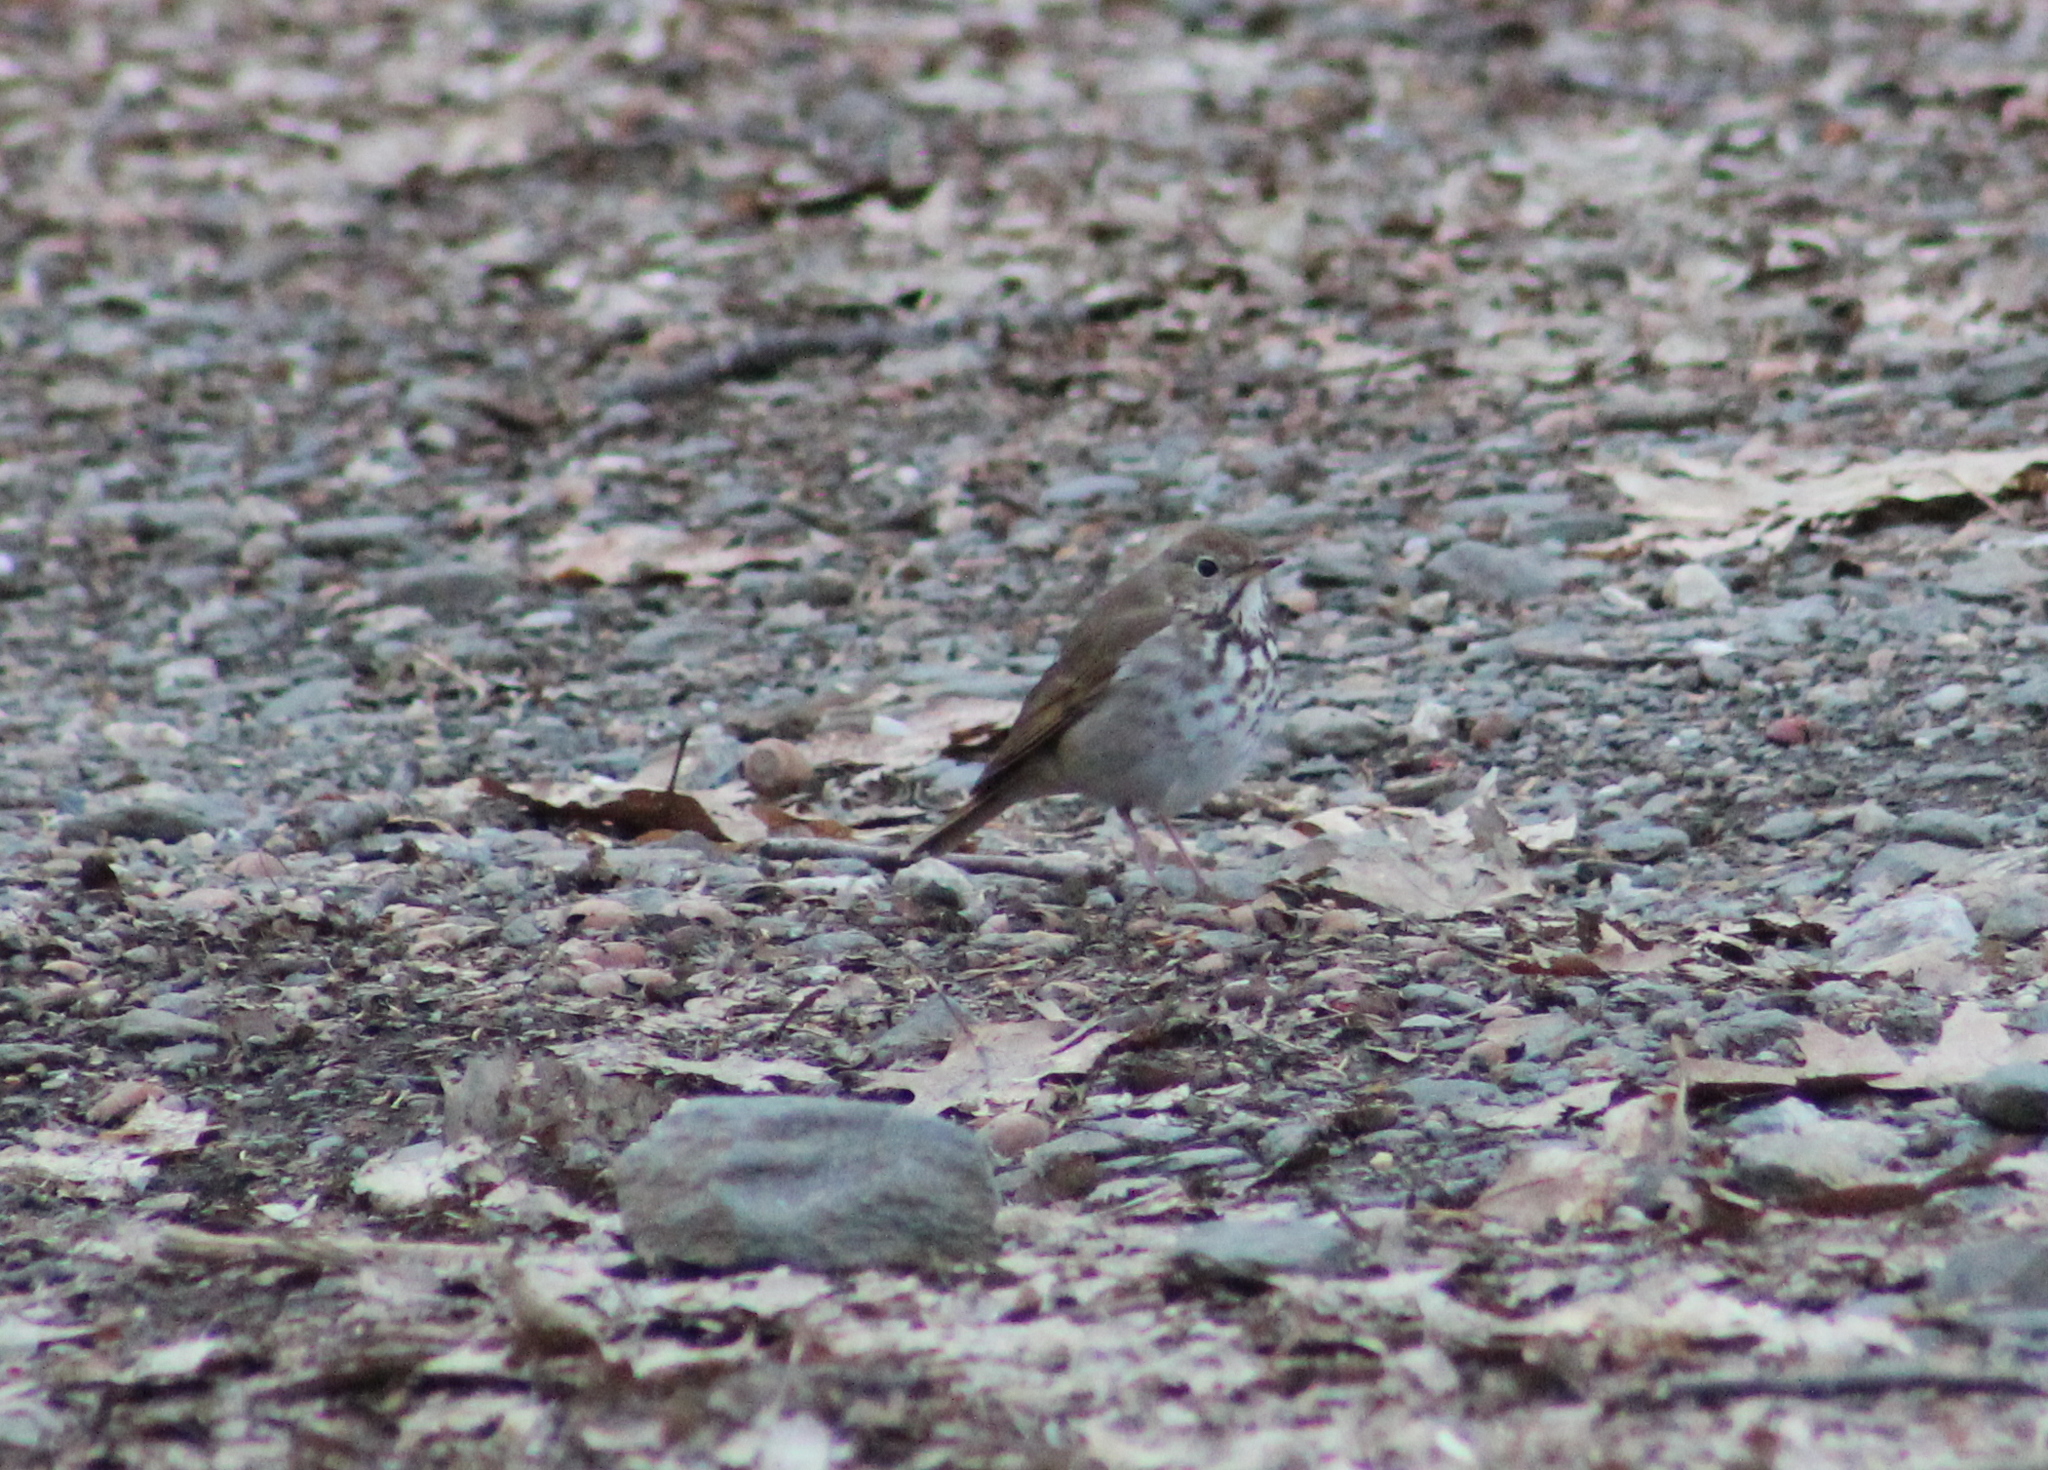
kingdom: Animalia
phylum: Chordata
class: Aves
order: Passeriformes
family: Turdidae
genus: Catharus
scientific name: Catharus guttatus
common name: Hermit thrush
